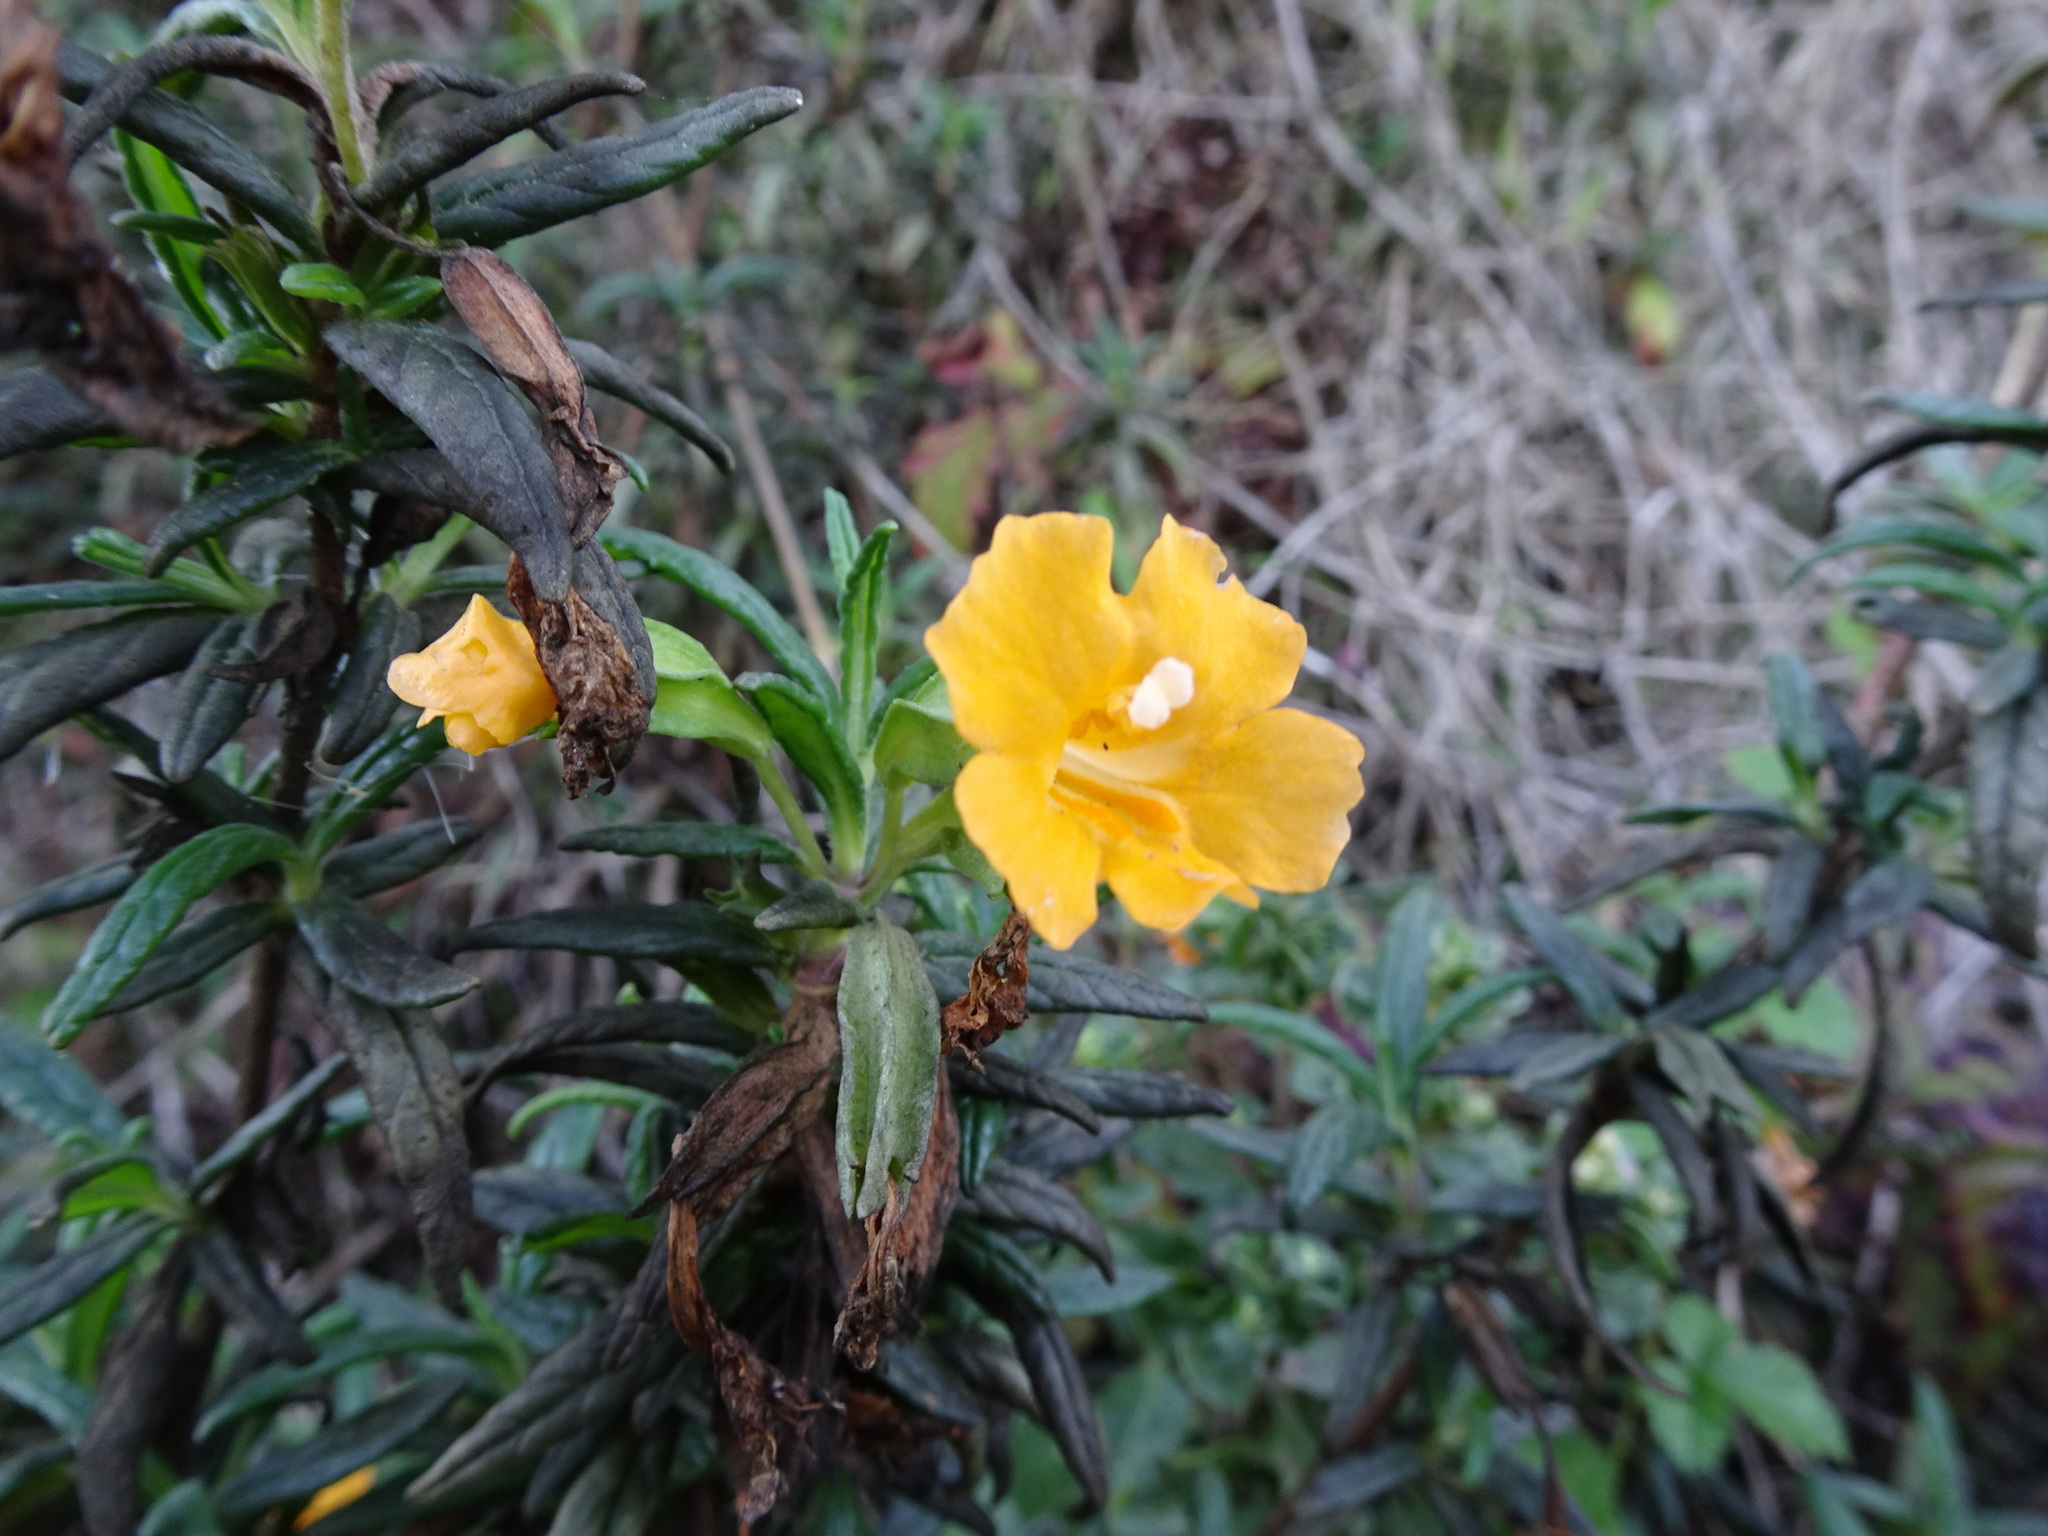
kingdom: Plantae
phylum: Tracheophyta
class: Magnoliopsida
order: Lamiales
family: Phrymaceae
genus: Diplacus
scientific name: Diplacus aurantiacus
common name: Bush monkey-flower
